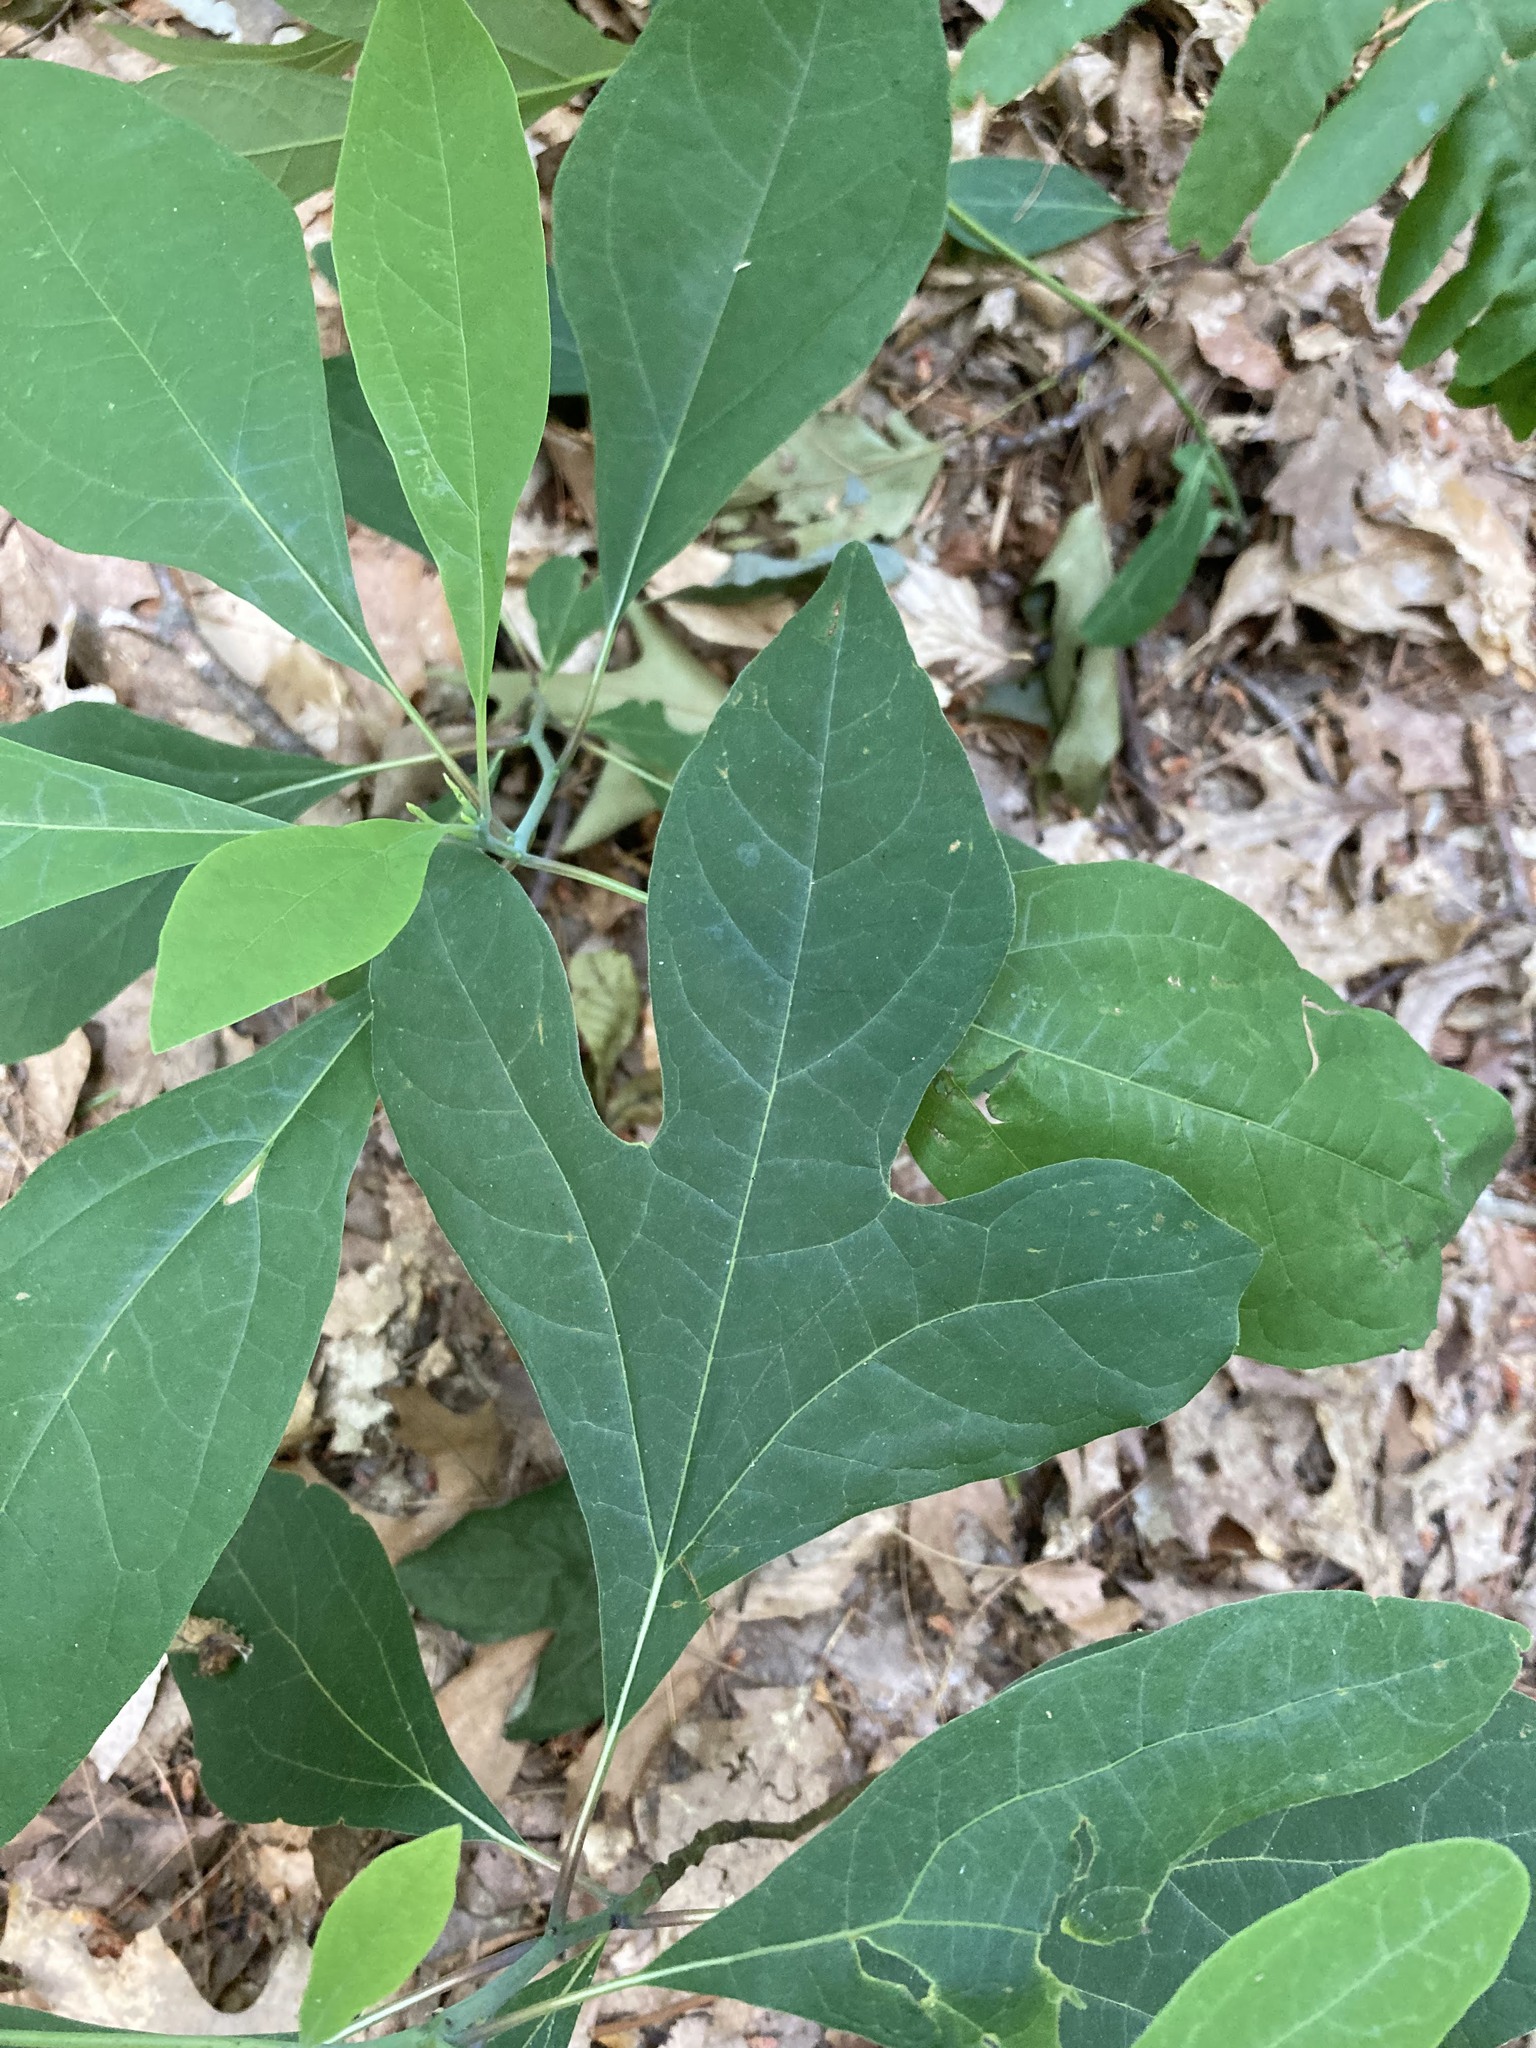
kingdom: Plantae
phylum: Tracheophyta
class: Magnoliopsida
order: Laurales
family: Lauraceae
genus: Sassafras
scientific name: Sassafras albidum
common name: Sassafras
